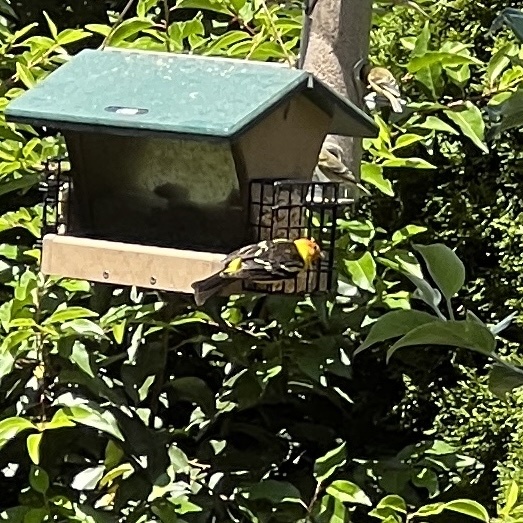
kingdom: Animalia
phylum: Chordata
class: Aves
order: Passeriformes
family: Cardinalidae
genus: Piranga
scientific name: Piranga ludoviciana
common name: Western tanager
